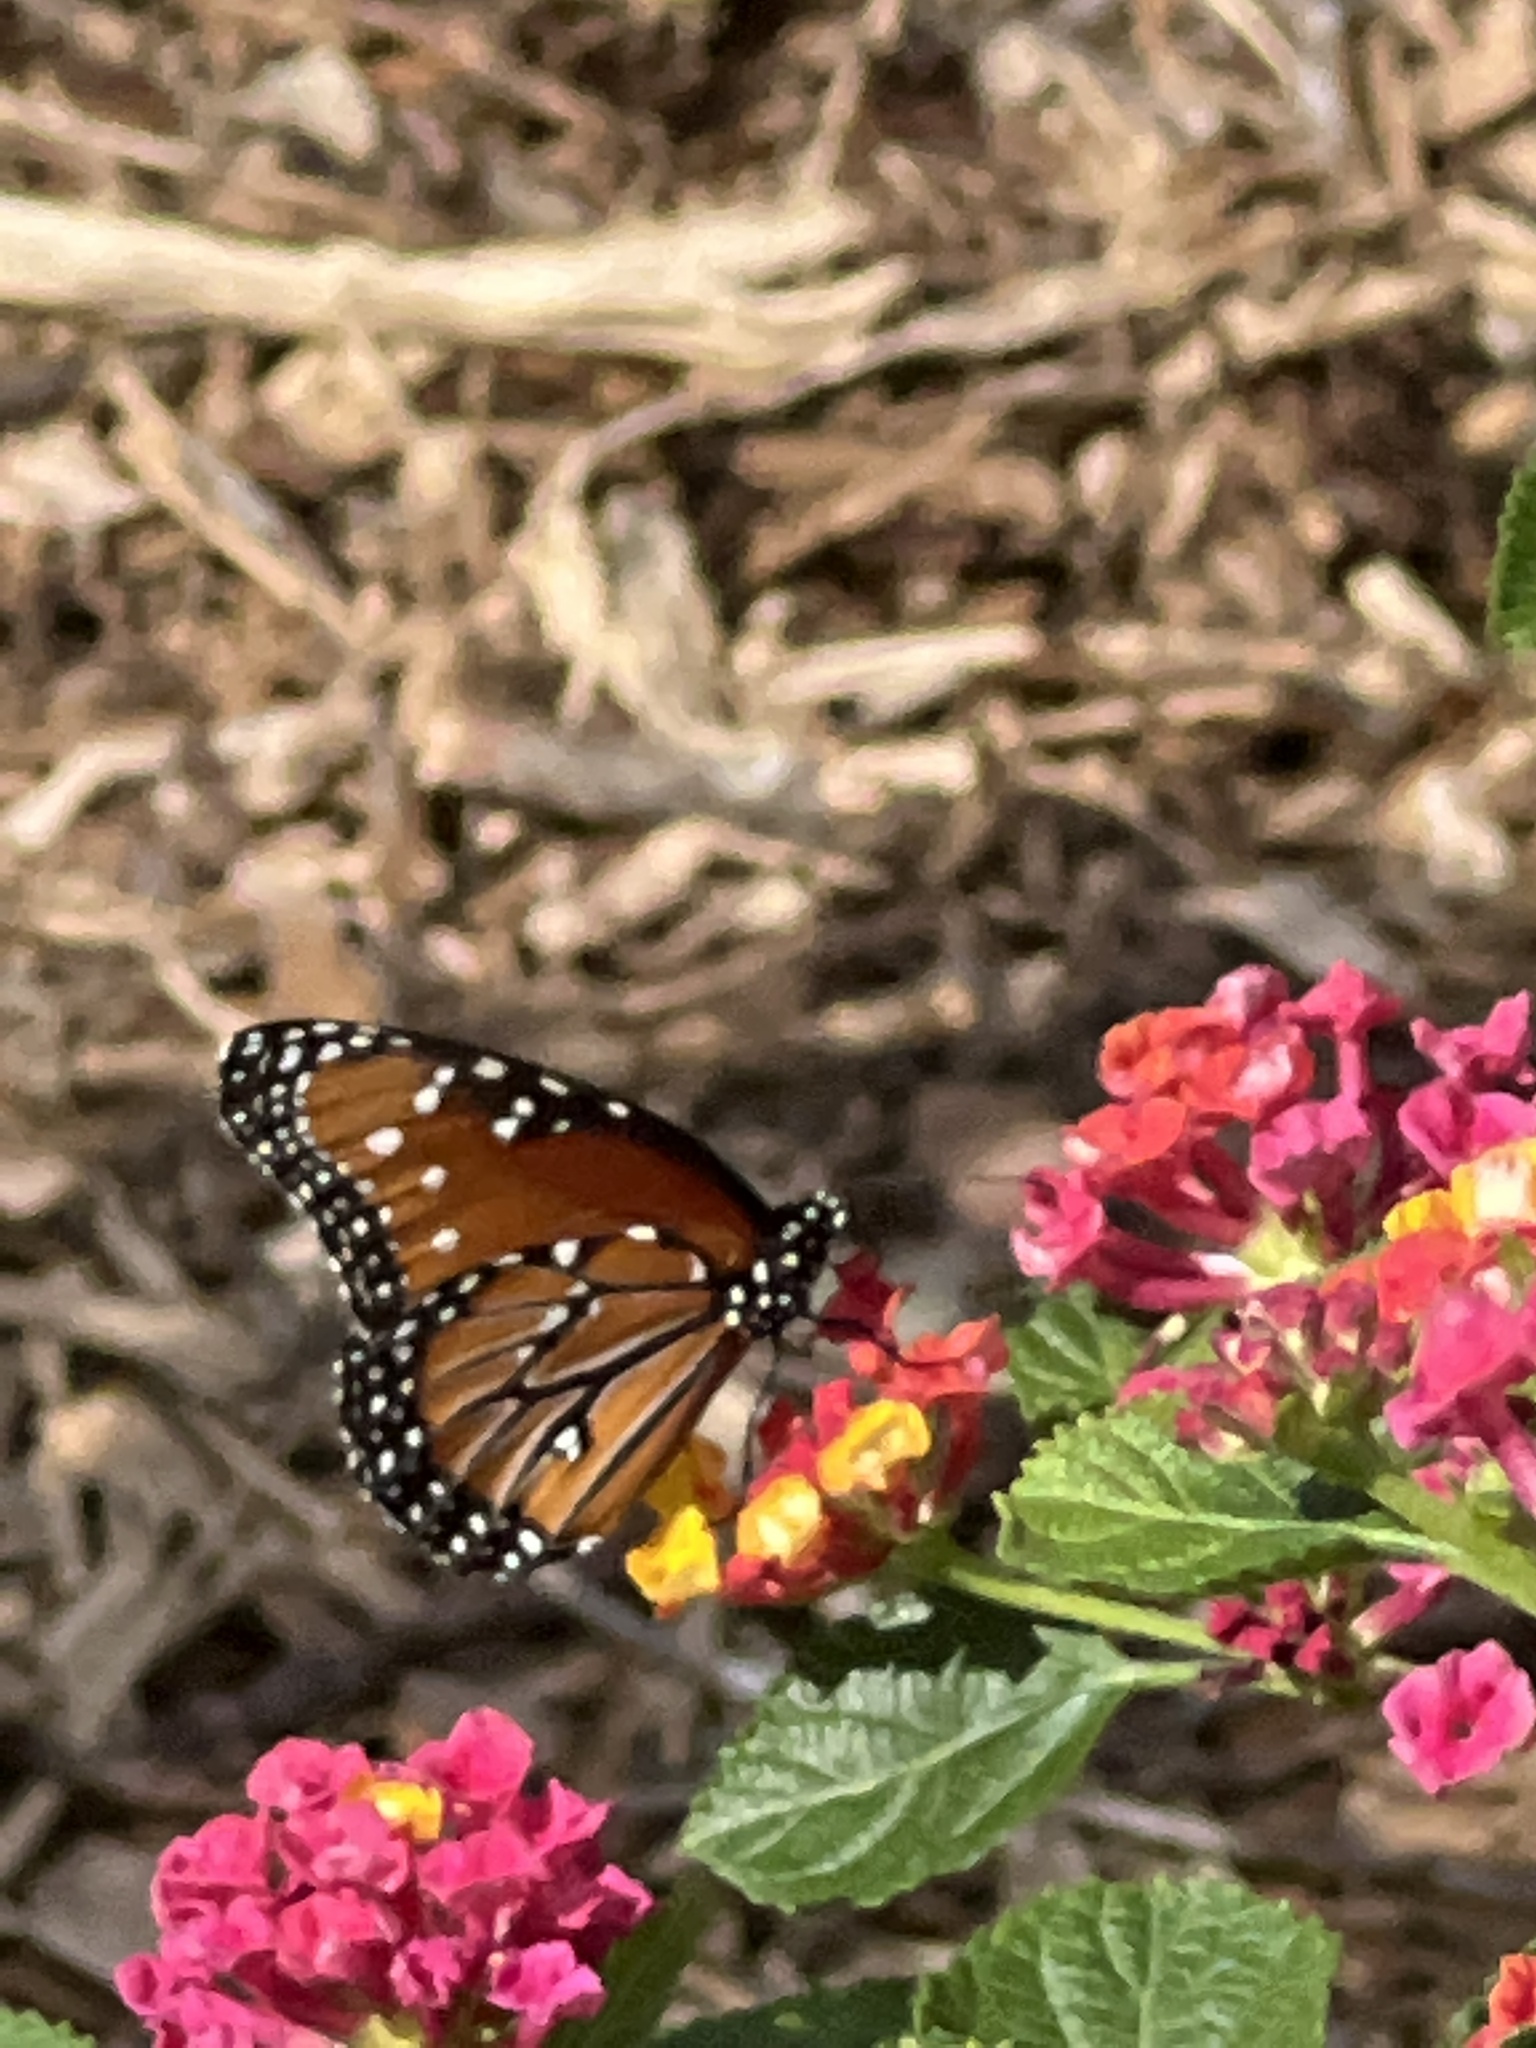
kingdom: Animalia
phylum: Arthropoda
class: Insecta
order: Lepidoptera
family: Nymphalidae
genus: Danaus
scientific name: Danaus gilippus
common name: Queen
